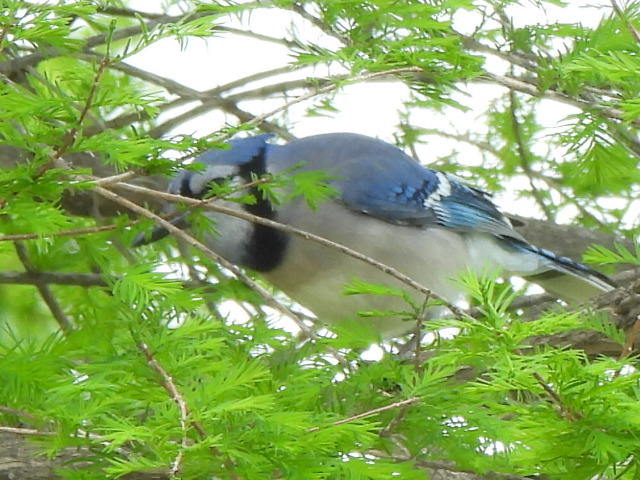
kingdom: Animalia
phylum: Chordata
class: Aves
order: Passeriformes
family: Corvidae
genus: Cyanocitta
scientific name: Cyanocitta cristata
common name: Blue jay
